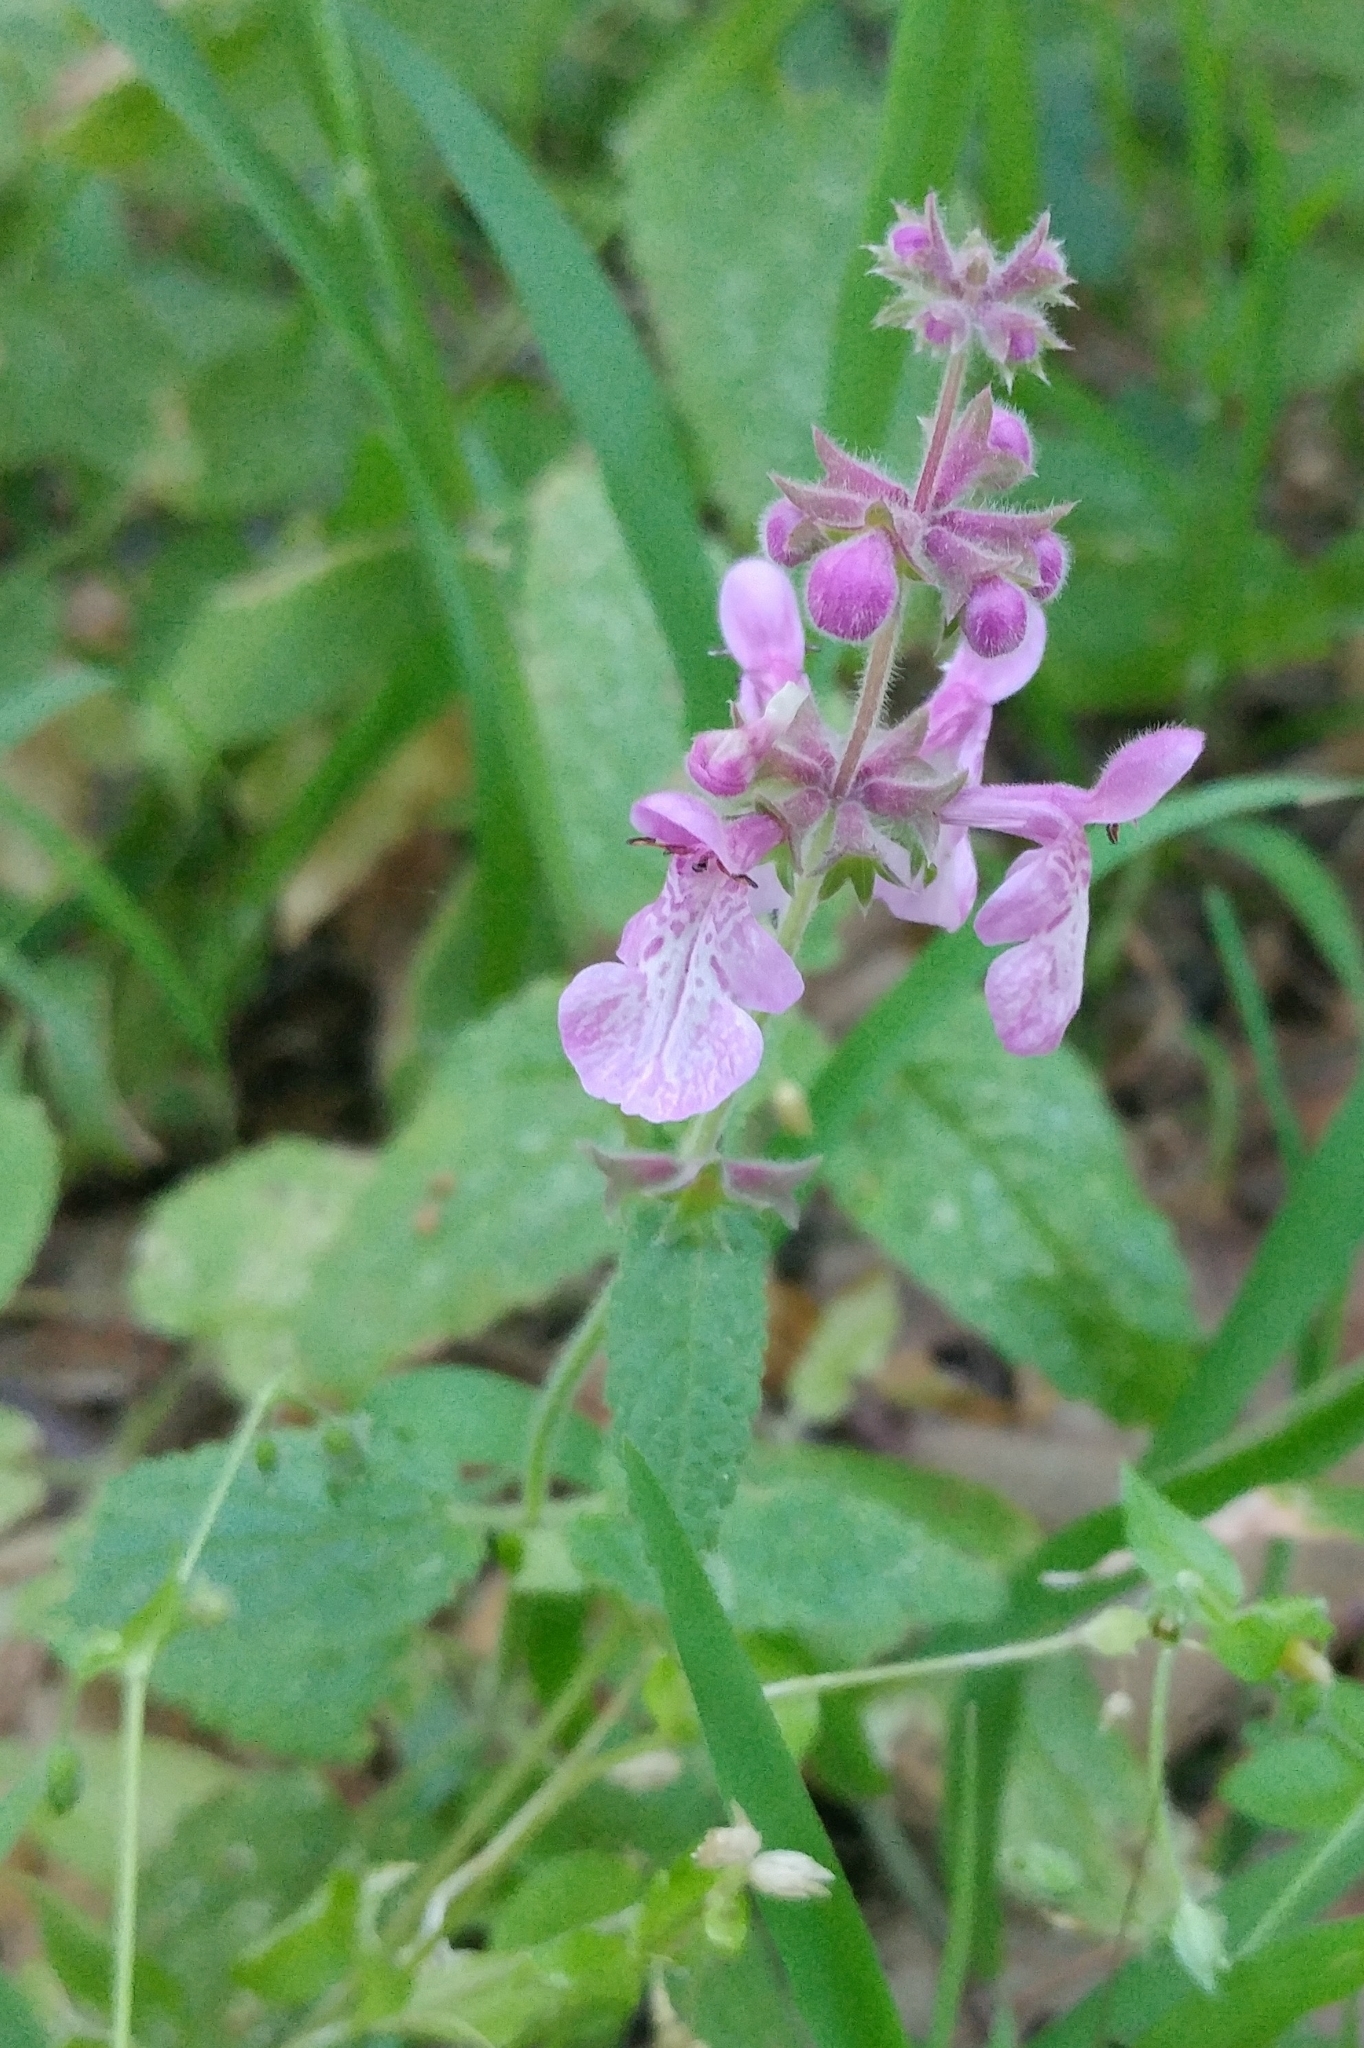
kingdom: Plantae
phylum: Tracheophyta
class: Magnoliopsida
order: Lamiales
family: Lamiaceae
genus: Stachys
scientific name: Stachys bullata
